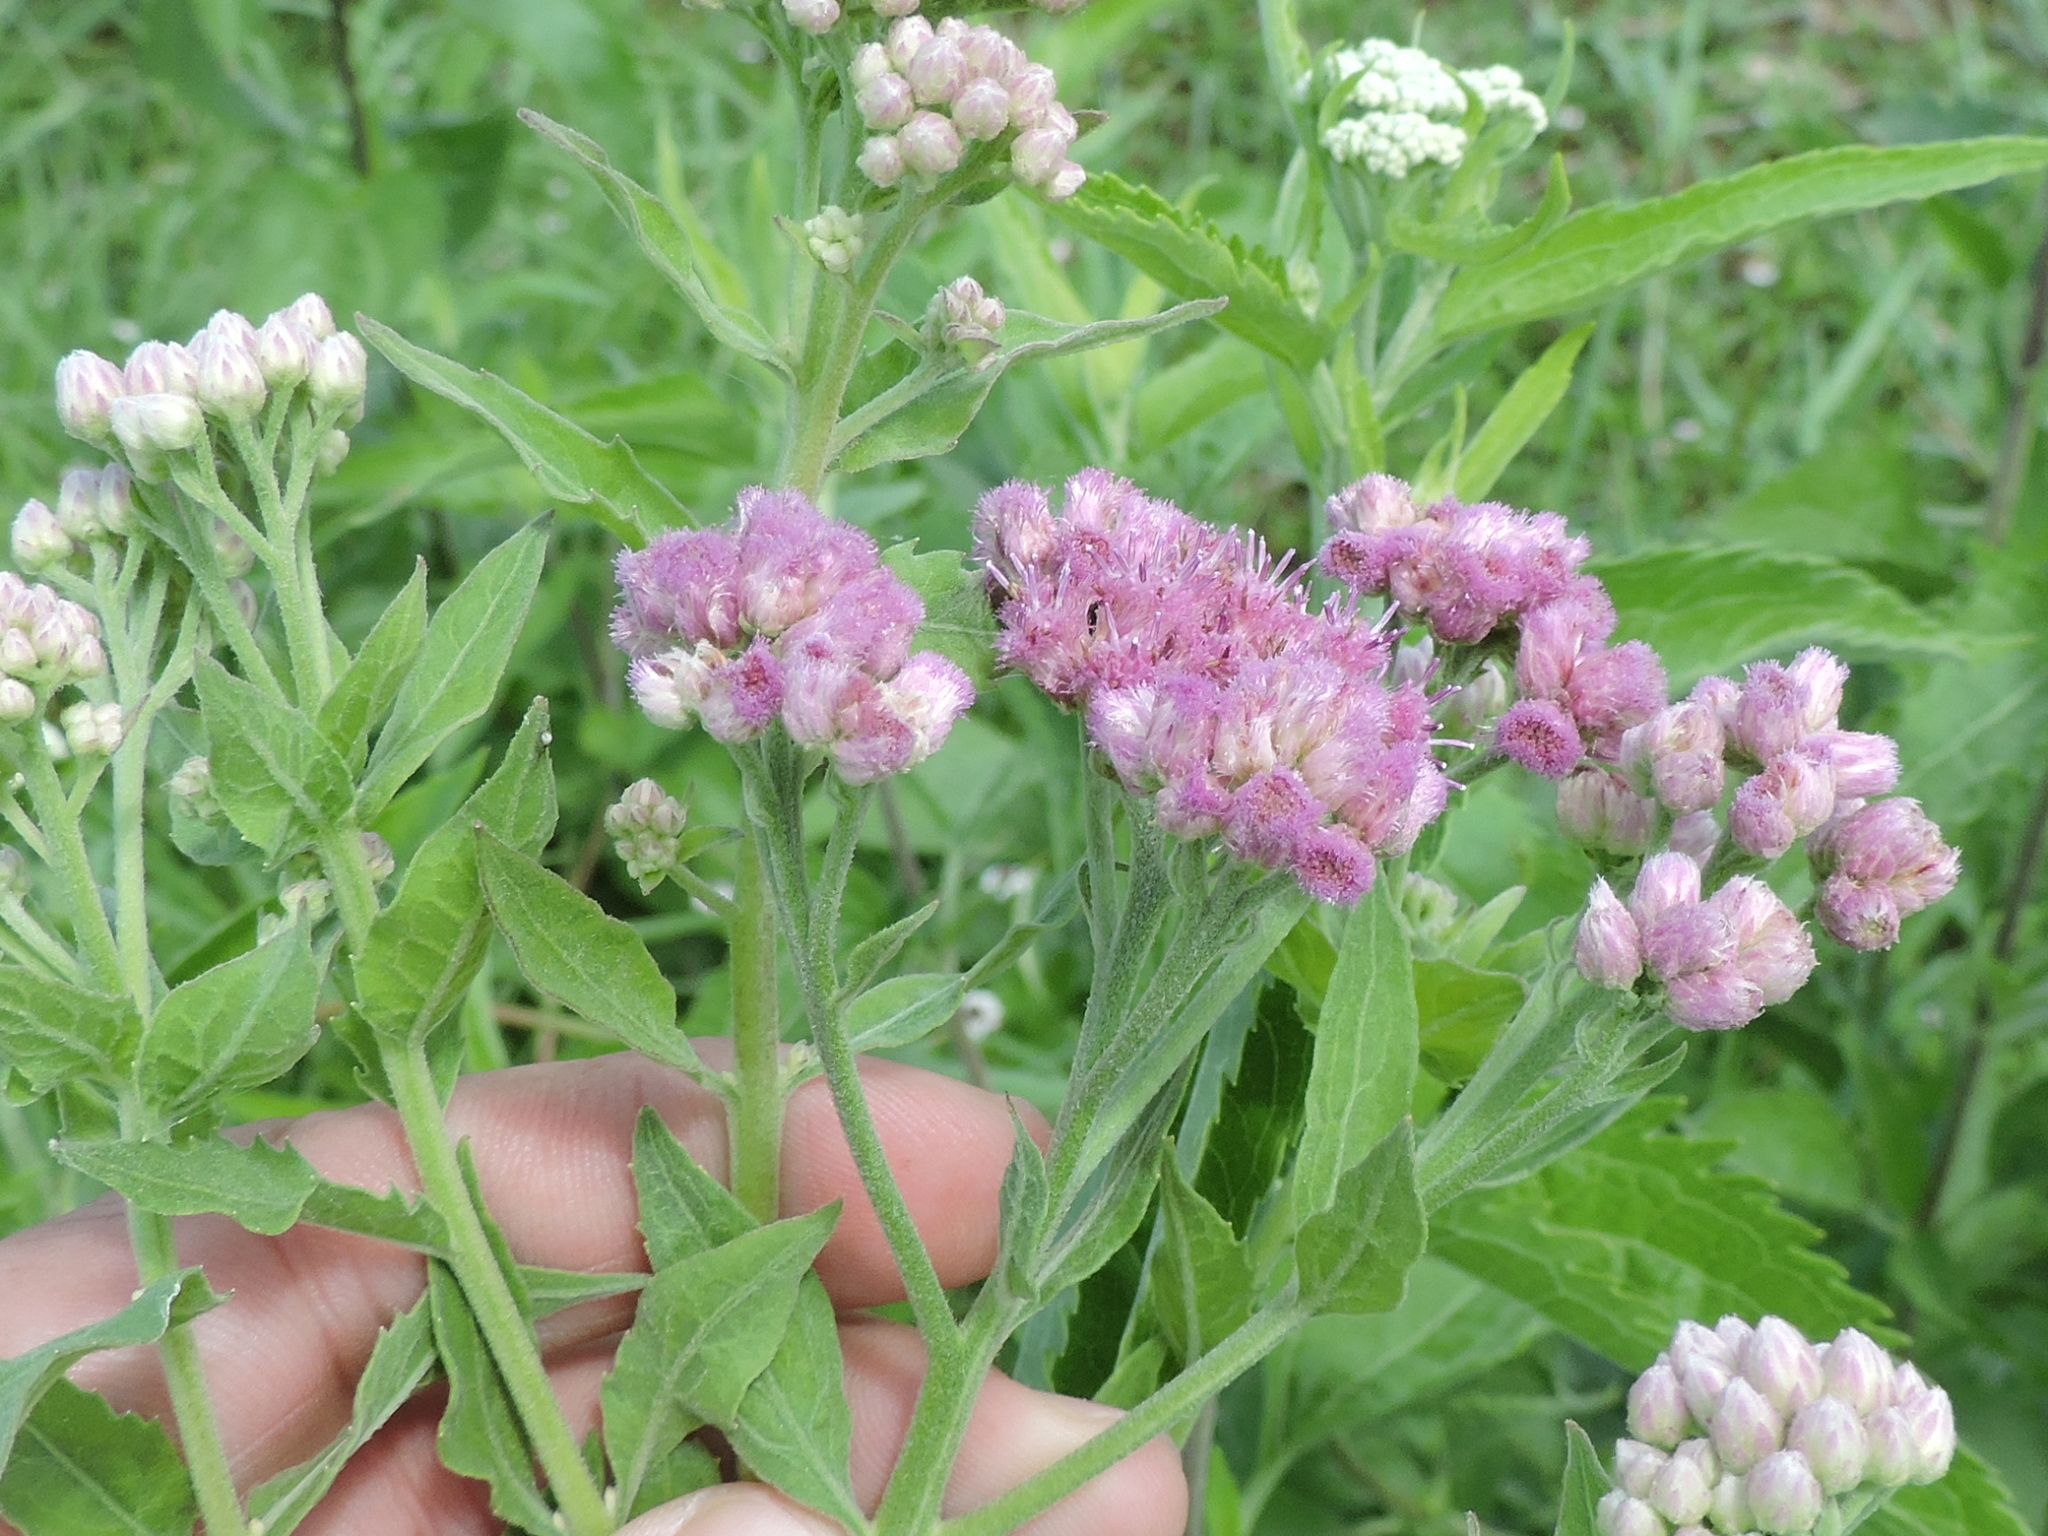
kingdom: Plantae
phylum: Tracheophyta
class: Magnoliopsida
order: Asterales
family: Asteraceae
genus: Pluchea
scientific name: Pluchea odorata
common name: Saltmarsh fleabane
